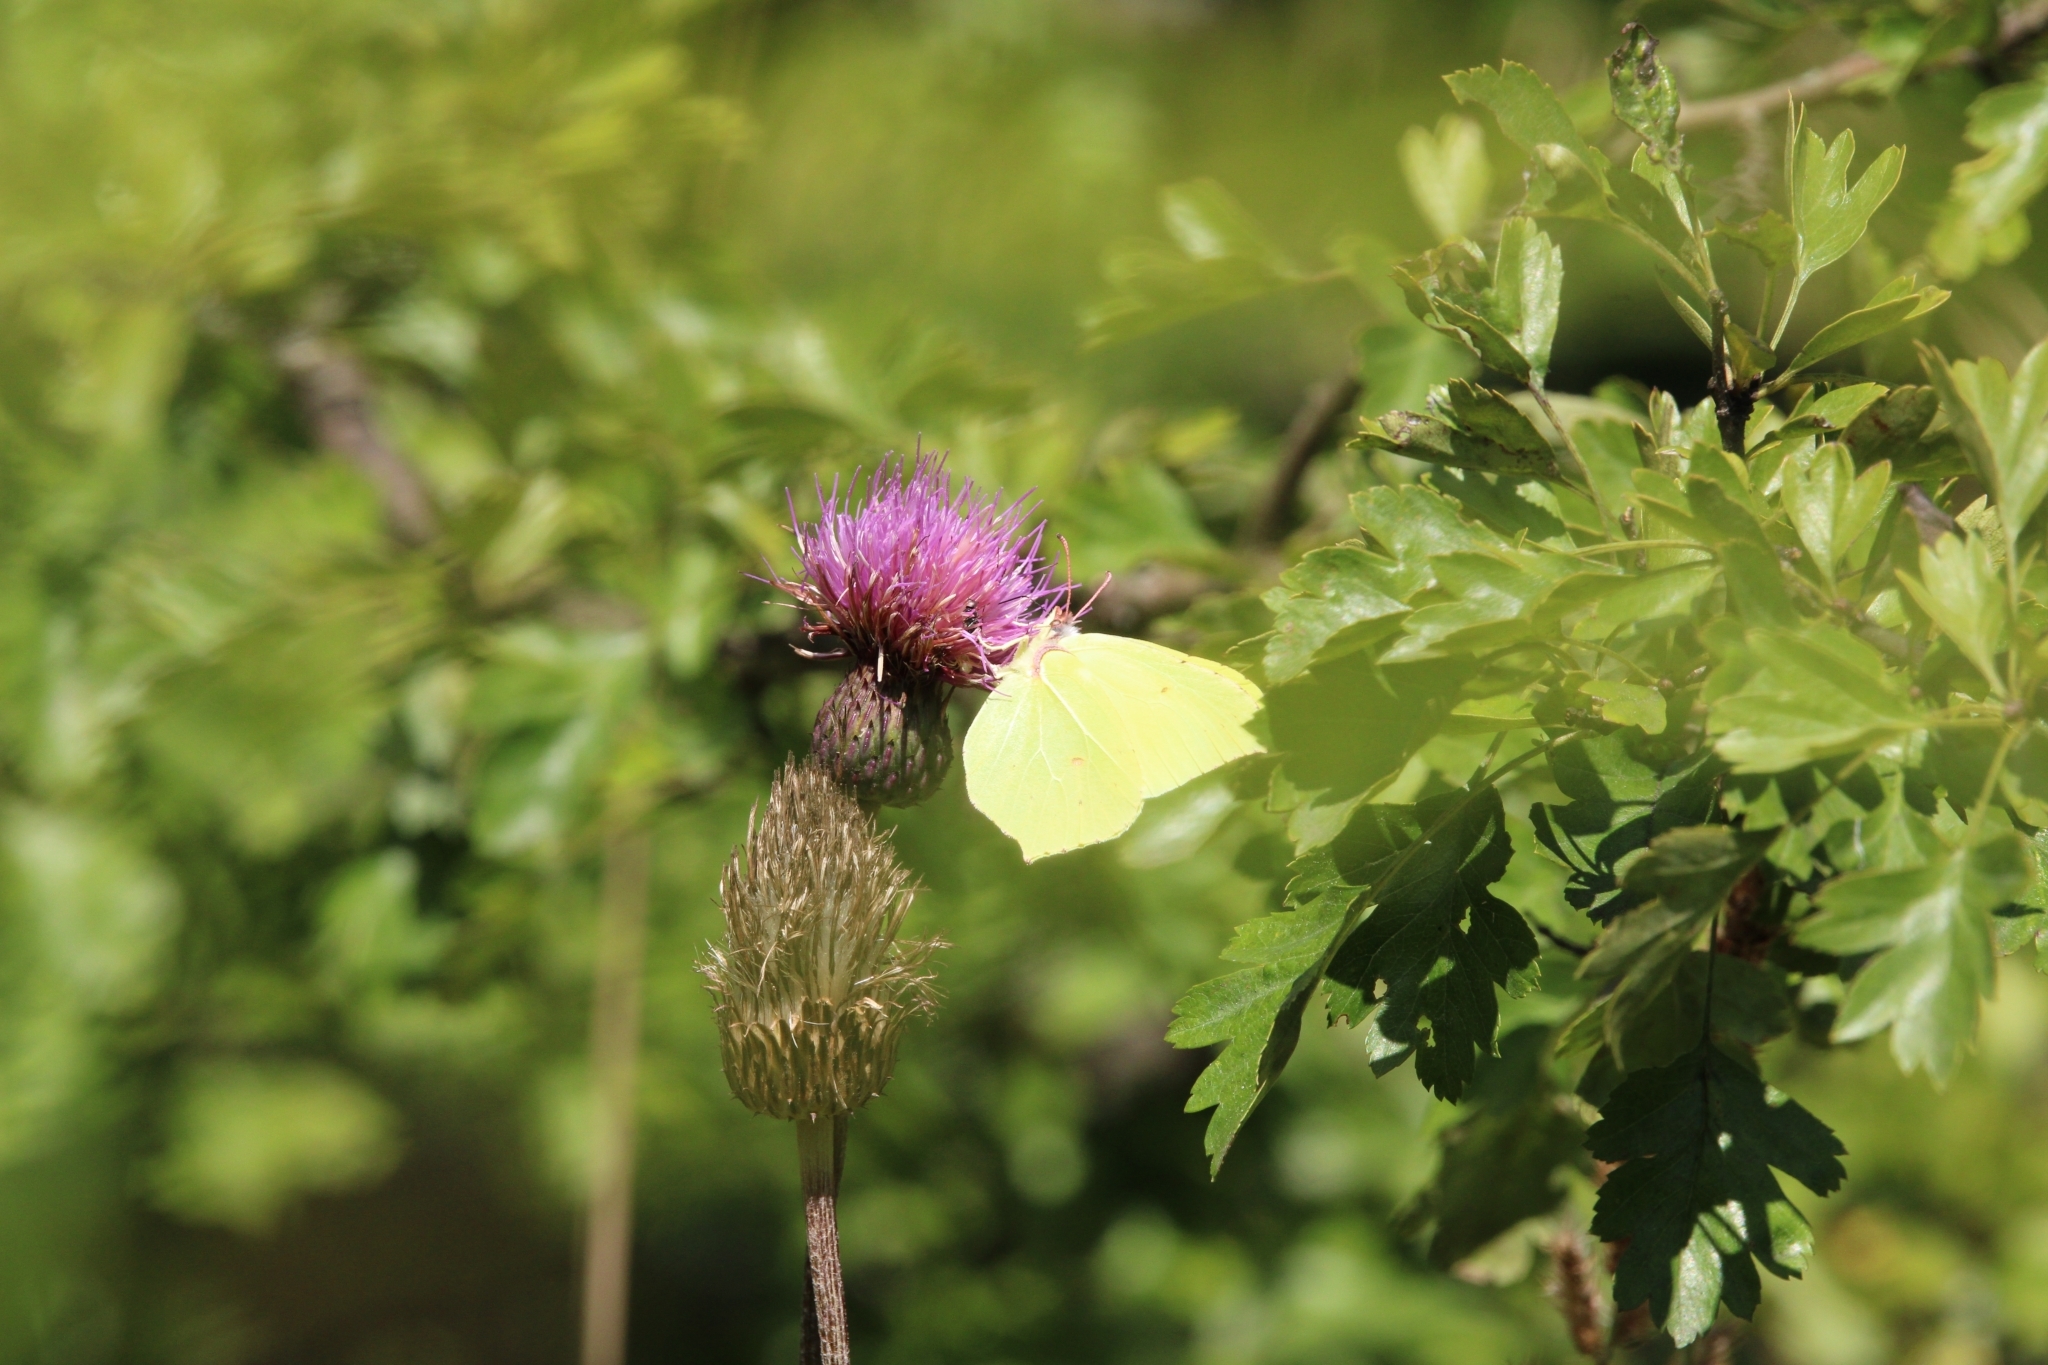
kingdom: Animalia
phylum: Arthropoda
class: Insecta
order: Lepidoptera
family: Pieridae
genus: Gonepteryx
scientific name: Gonepteryx rhamni
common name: Brimstone
